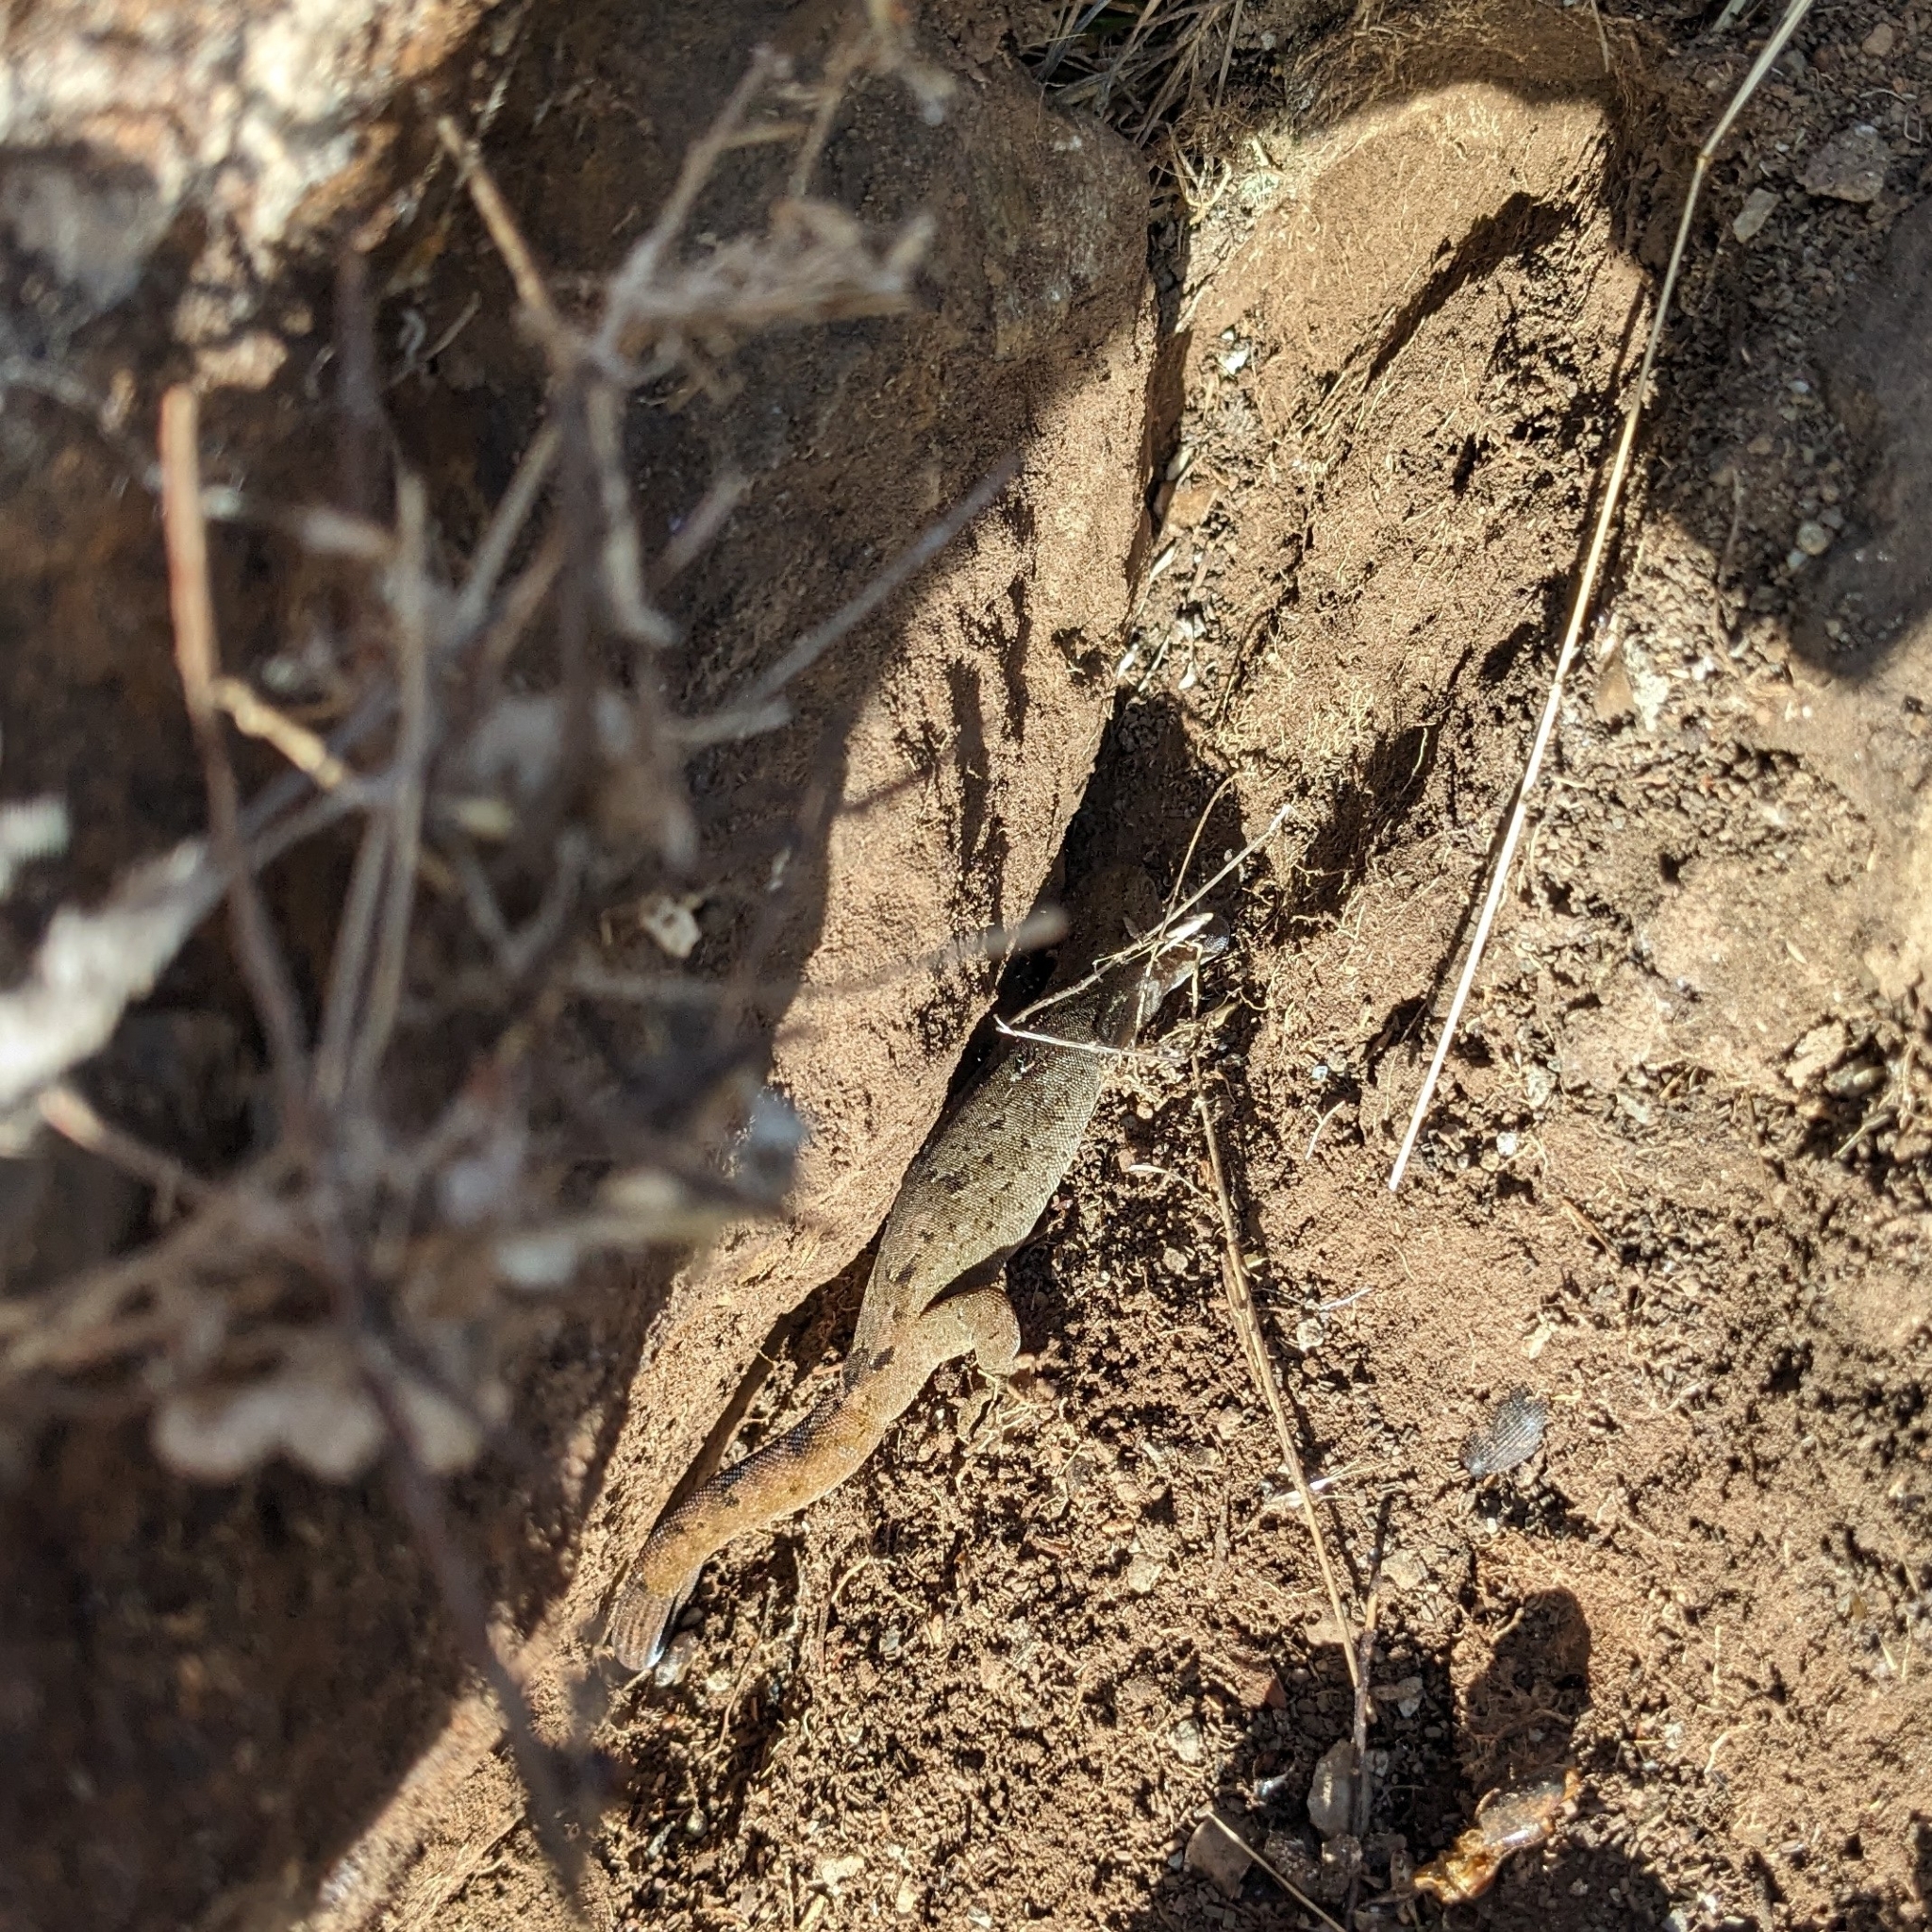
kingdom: Animalia
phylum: Chordata
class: Squamata
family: Diplodactylidae
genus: Woodworthia
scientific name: Woodworthia brunnea
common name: Canterbury gecko
